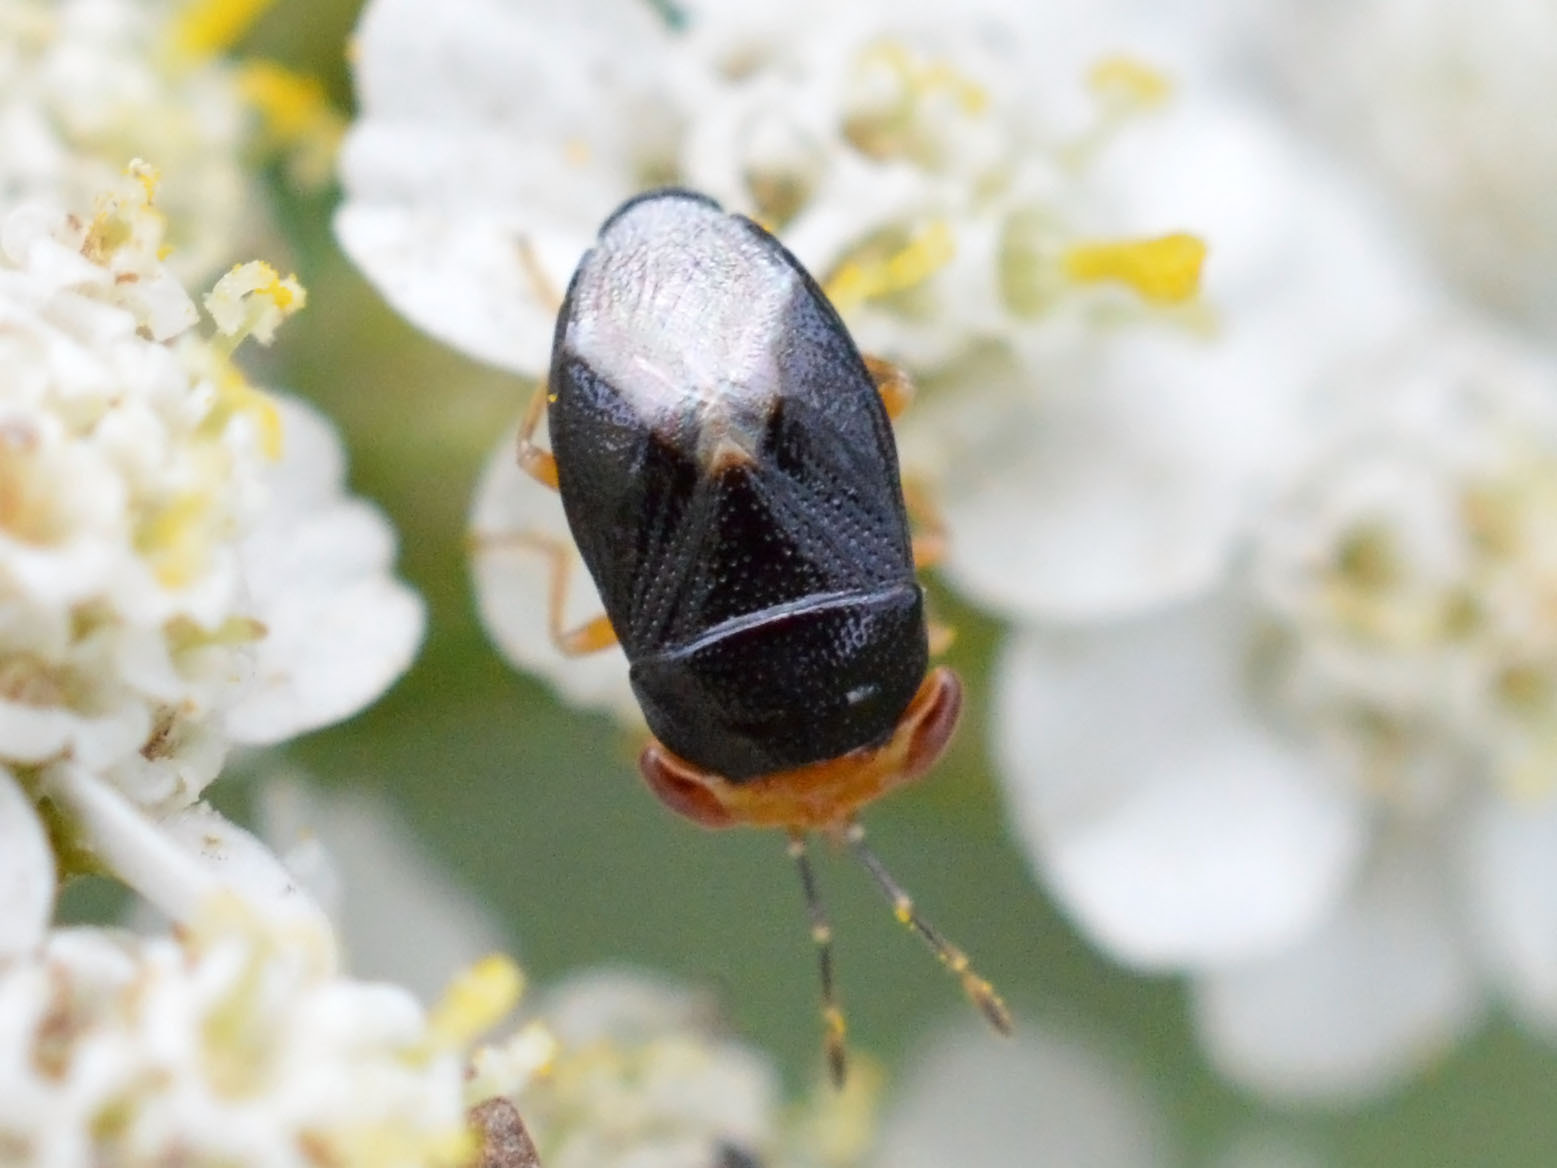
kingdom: Animalia
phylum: Arthropoda
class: Insecta
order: Hemiptera
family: Geocoridae
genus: Geocoris
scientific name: Geocoris erythrocephala
